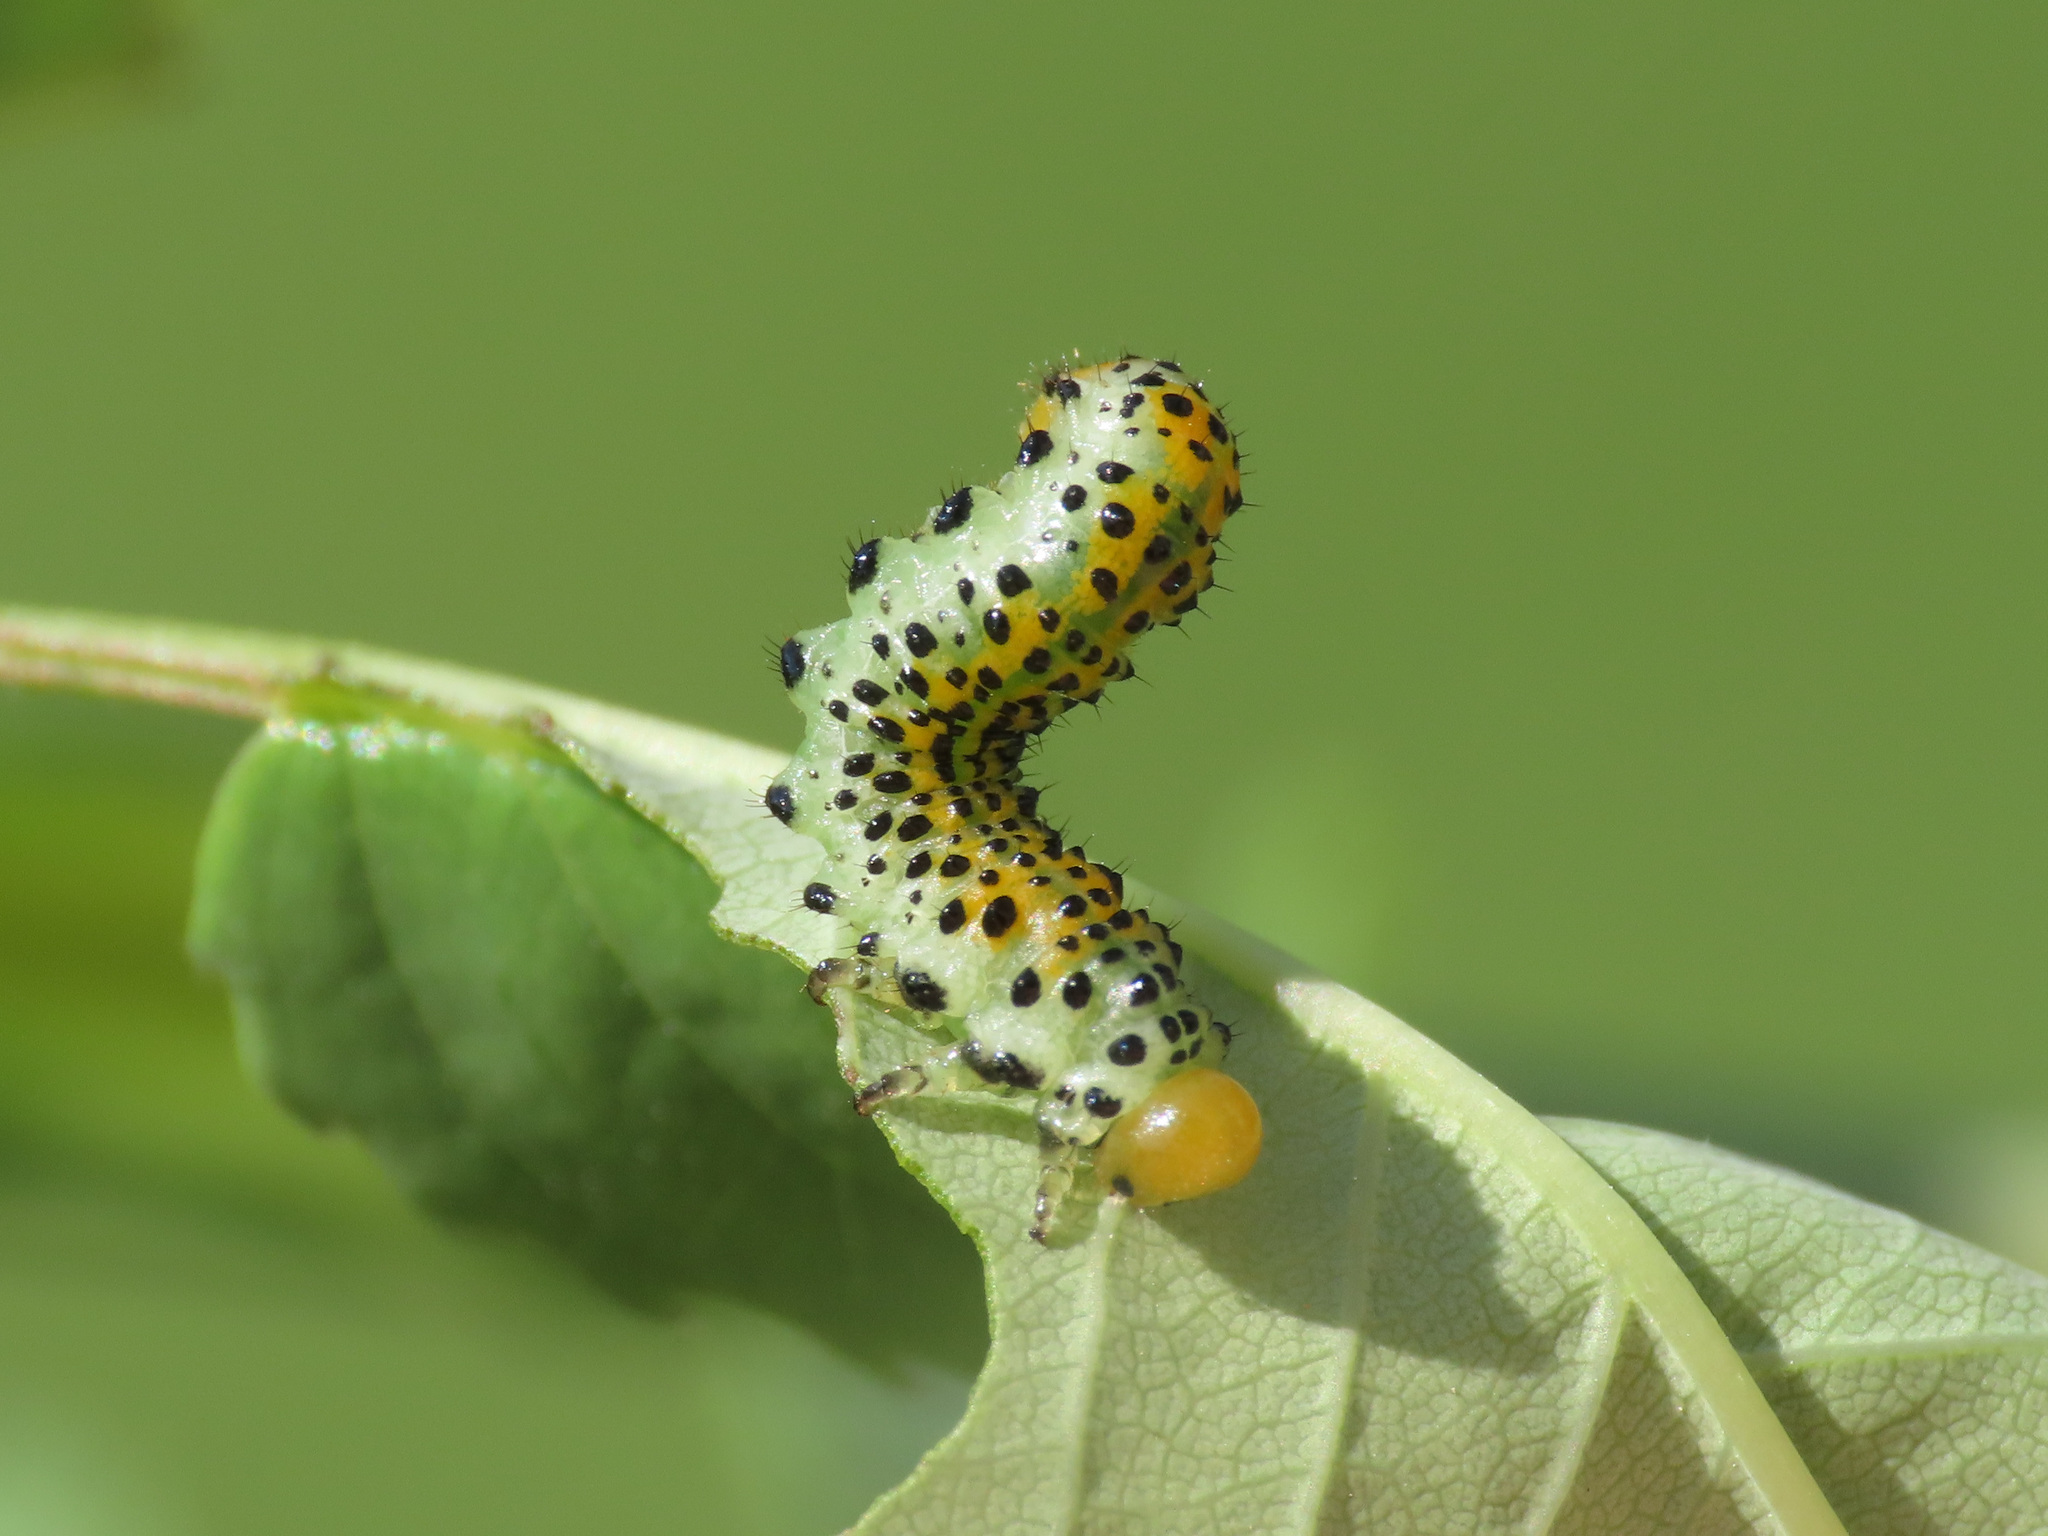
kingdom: Animalia
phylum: Arthropoda
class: Insecta
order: Hymenoptera
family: Argidae
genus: Arge
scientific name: Arge ochropus
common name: Argid sawfly
